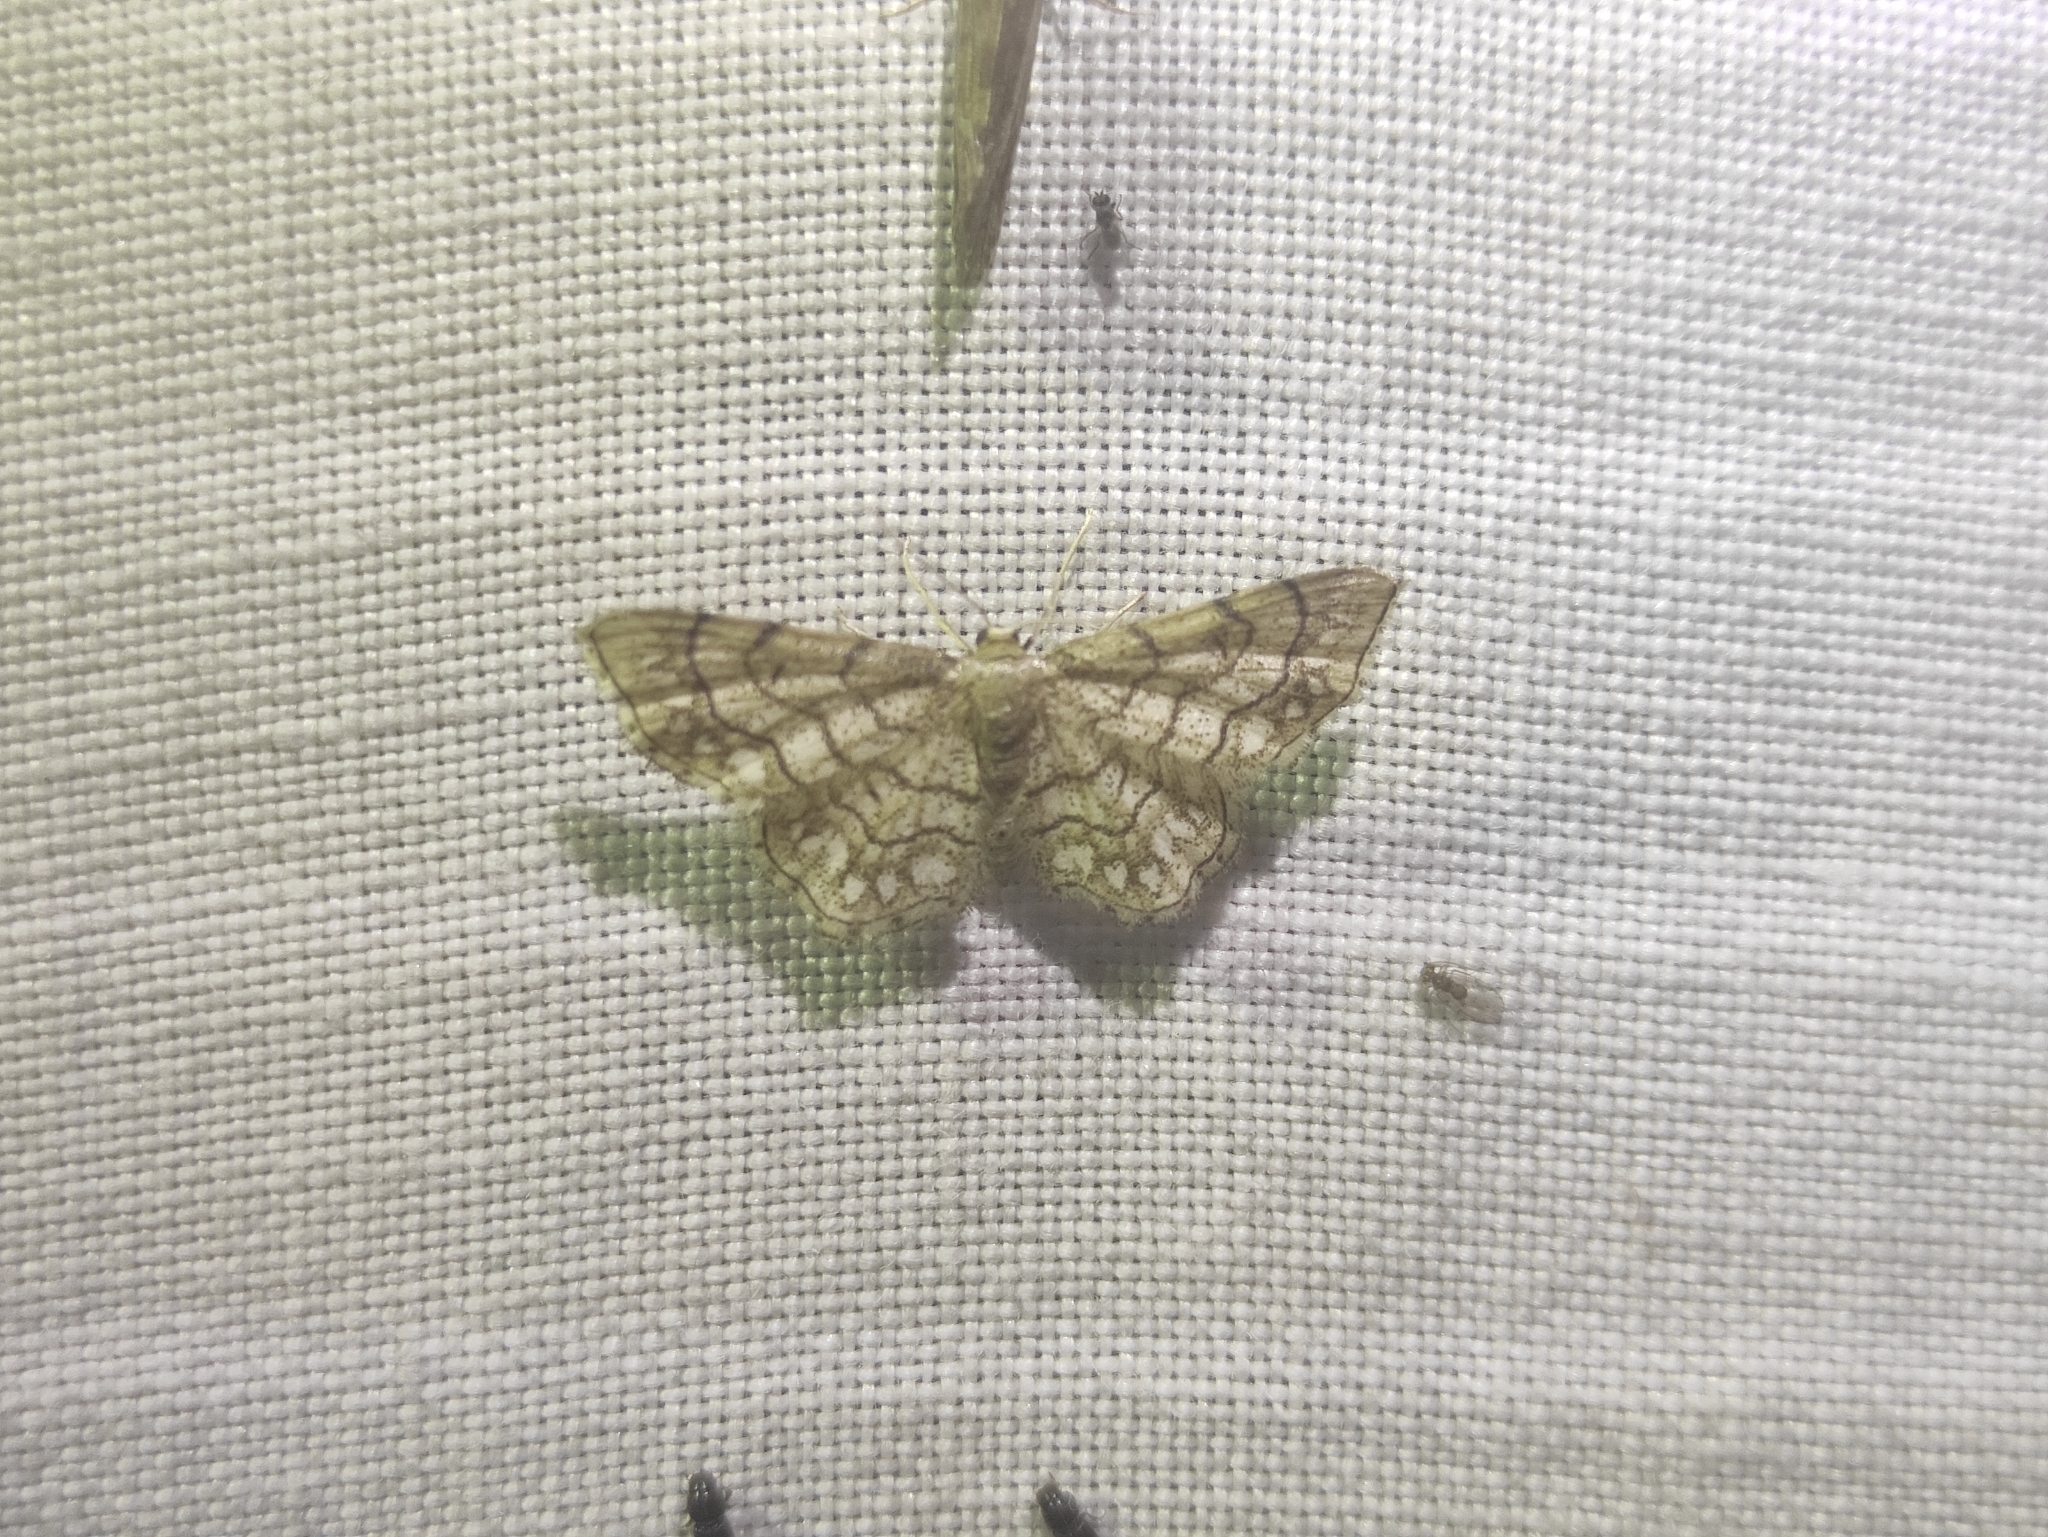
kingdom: Animalia
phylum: Arthropoda
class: Insecta
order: Lepidoptera
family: Geometridae
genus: Idaea
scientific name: Idaea moniliata
